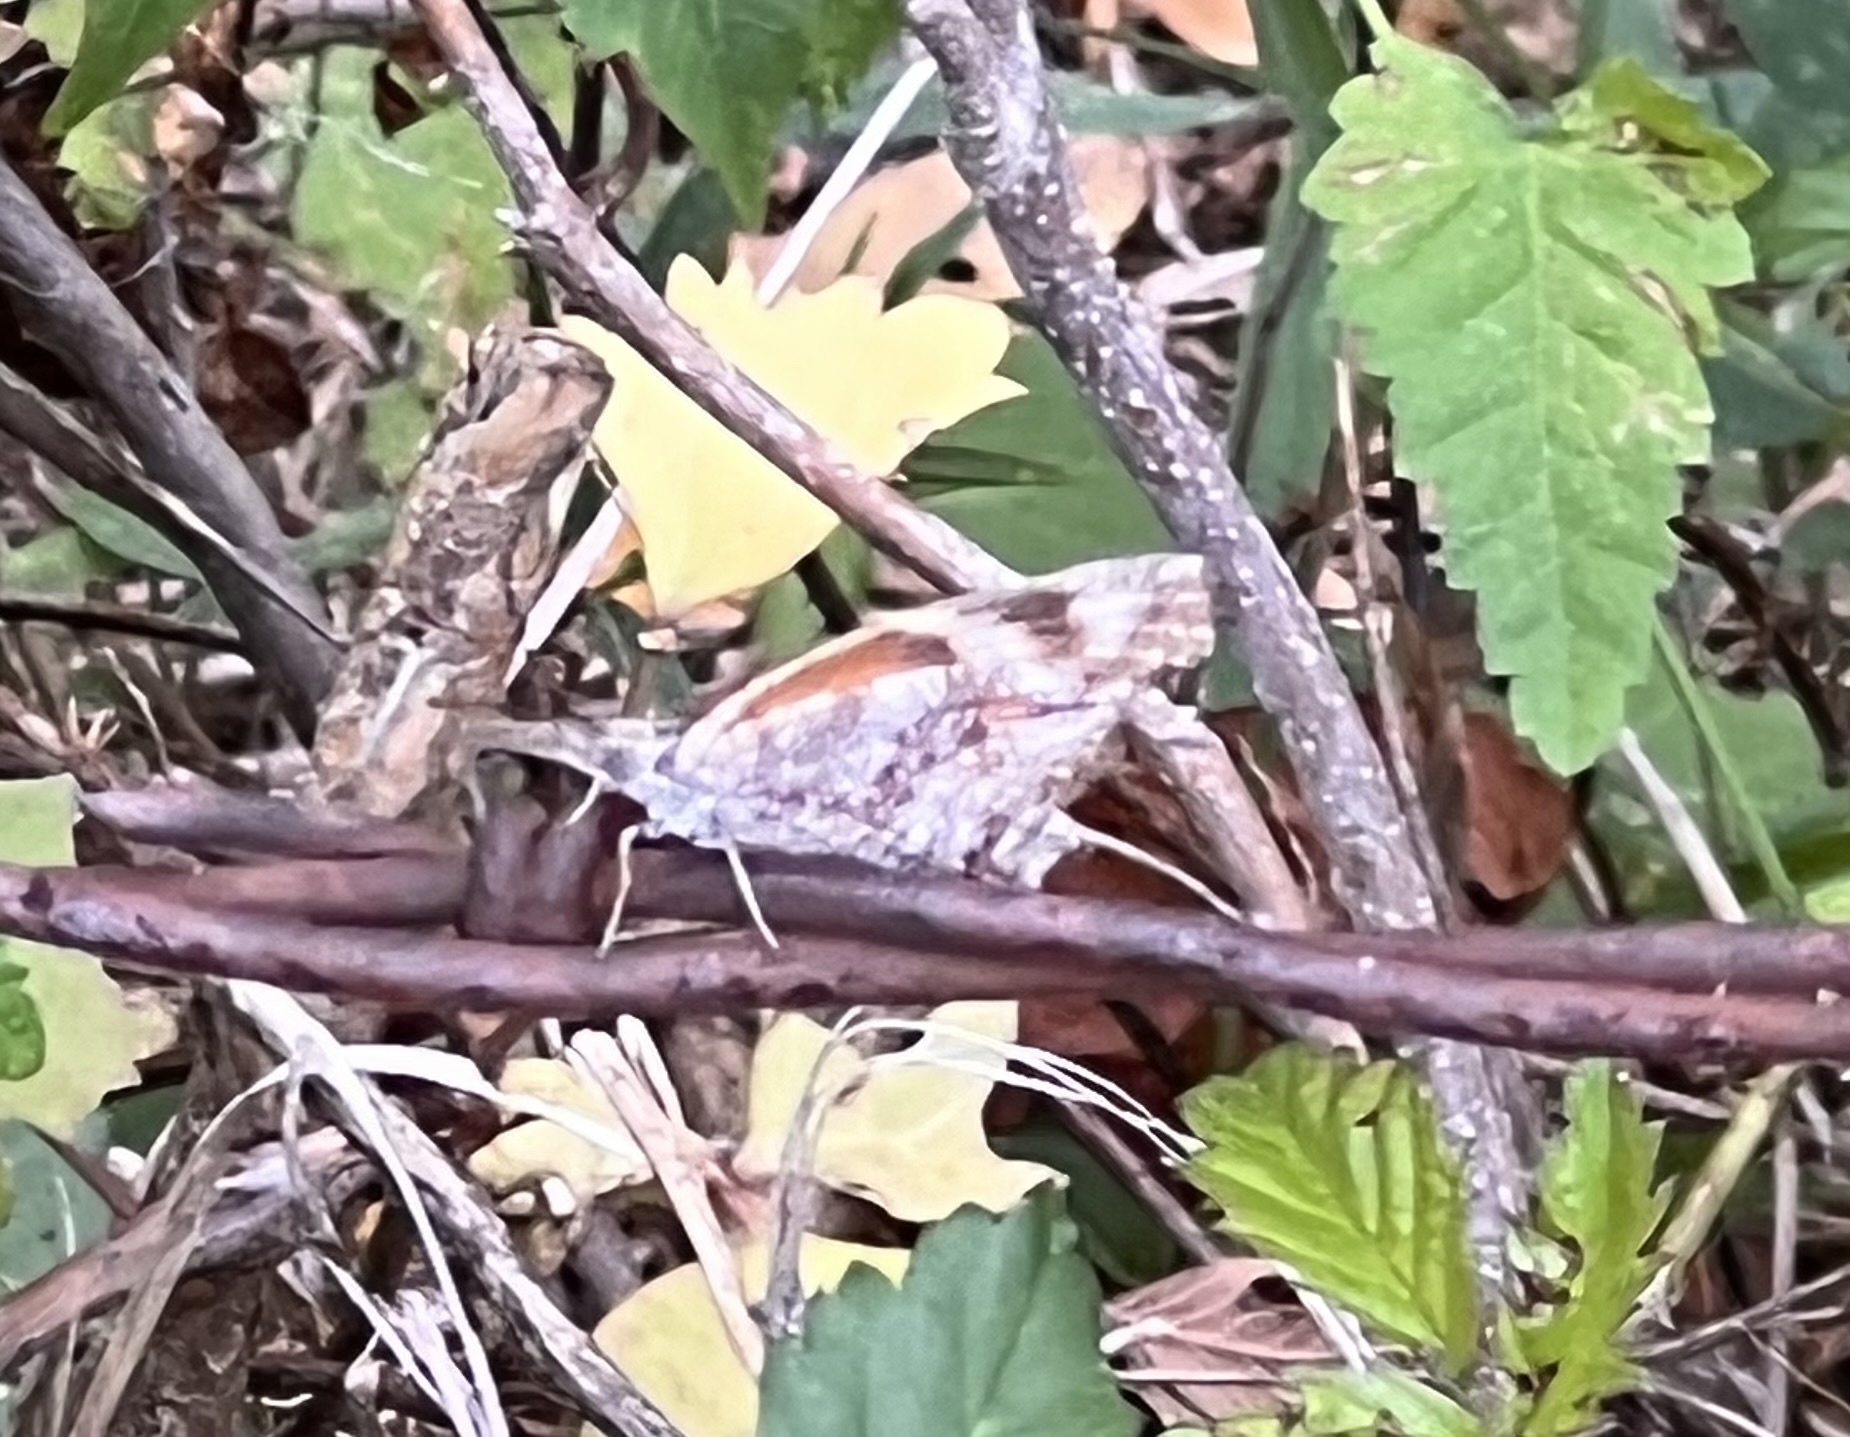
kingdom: Animalia
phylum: Arthropoda
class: Insecta
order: Lepidoptera
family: Nymphalidae
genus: Libytheana
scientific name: Libytheana carinenta
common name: American snout
